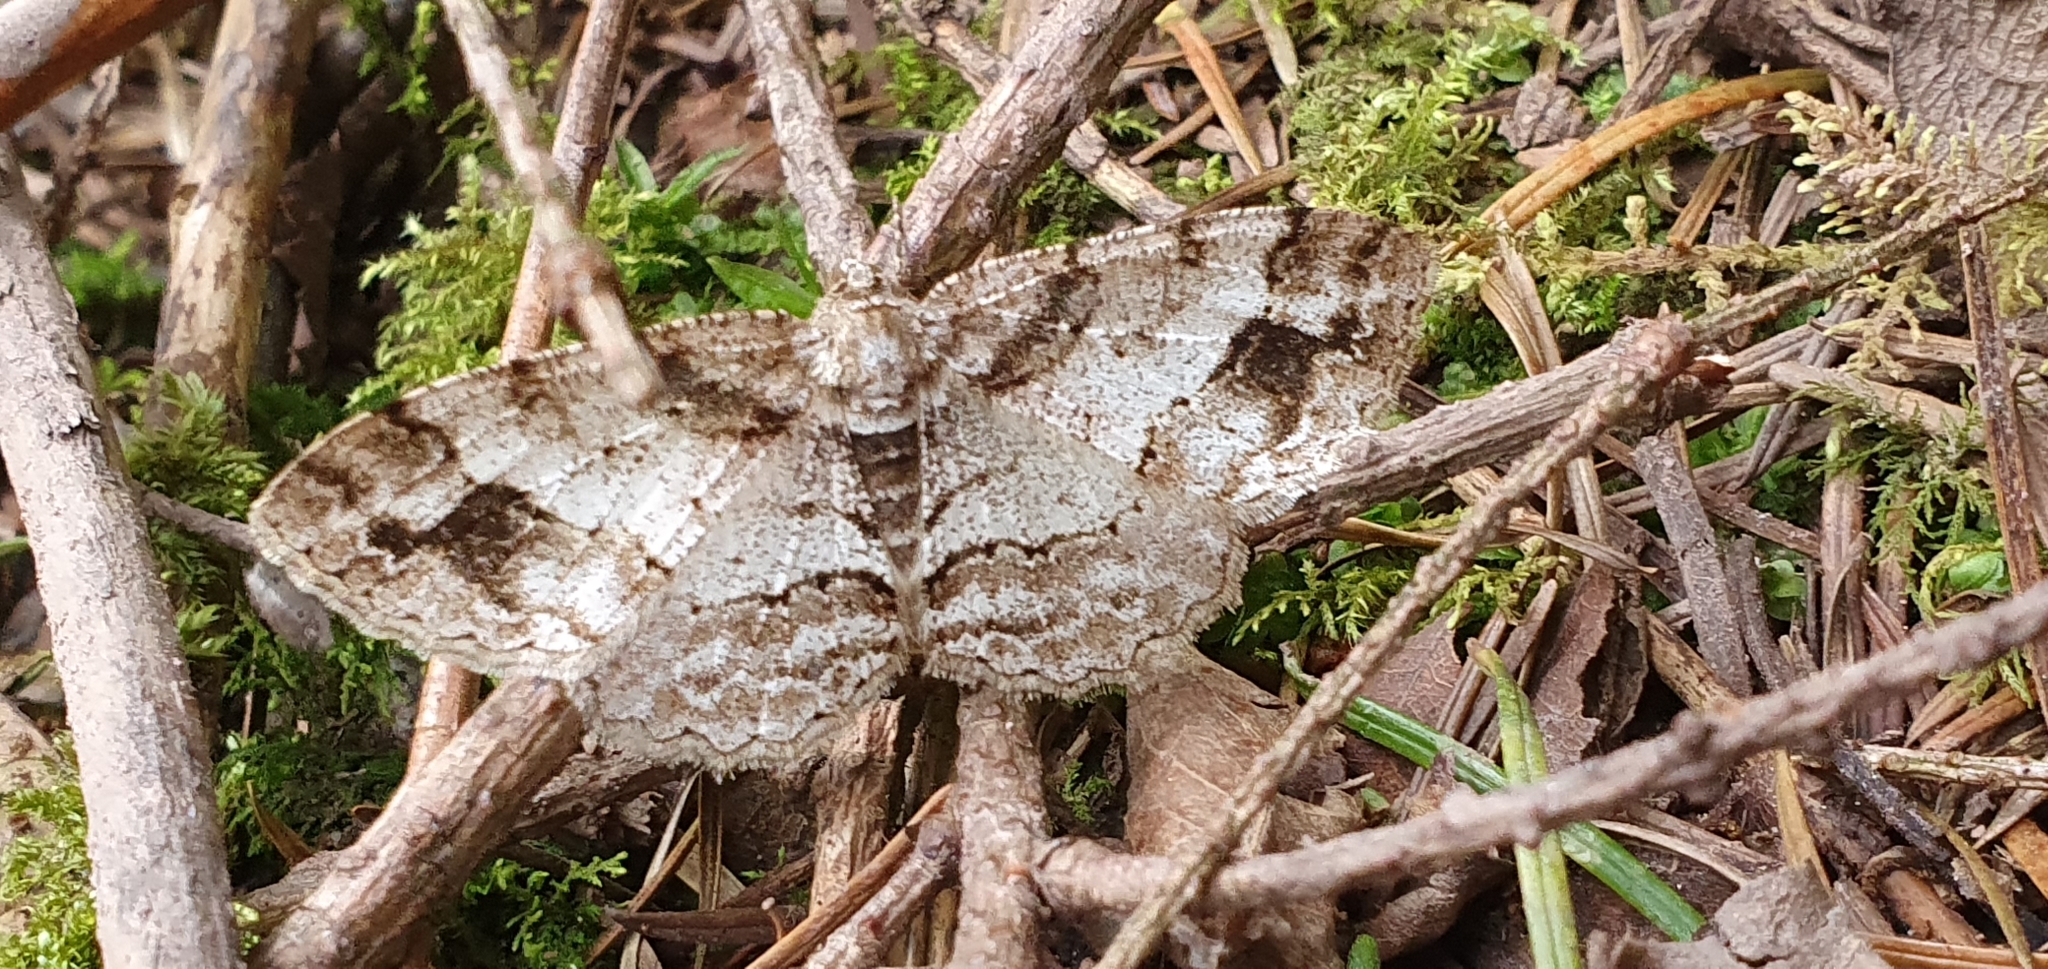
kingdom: Animalia
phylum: Arthropoda
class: Insecta
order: Lepidoptera
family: Geometridae
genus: Paradarisa
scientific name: Paradarisa consonaria
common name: Square spot
